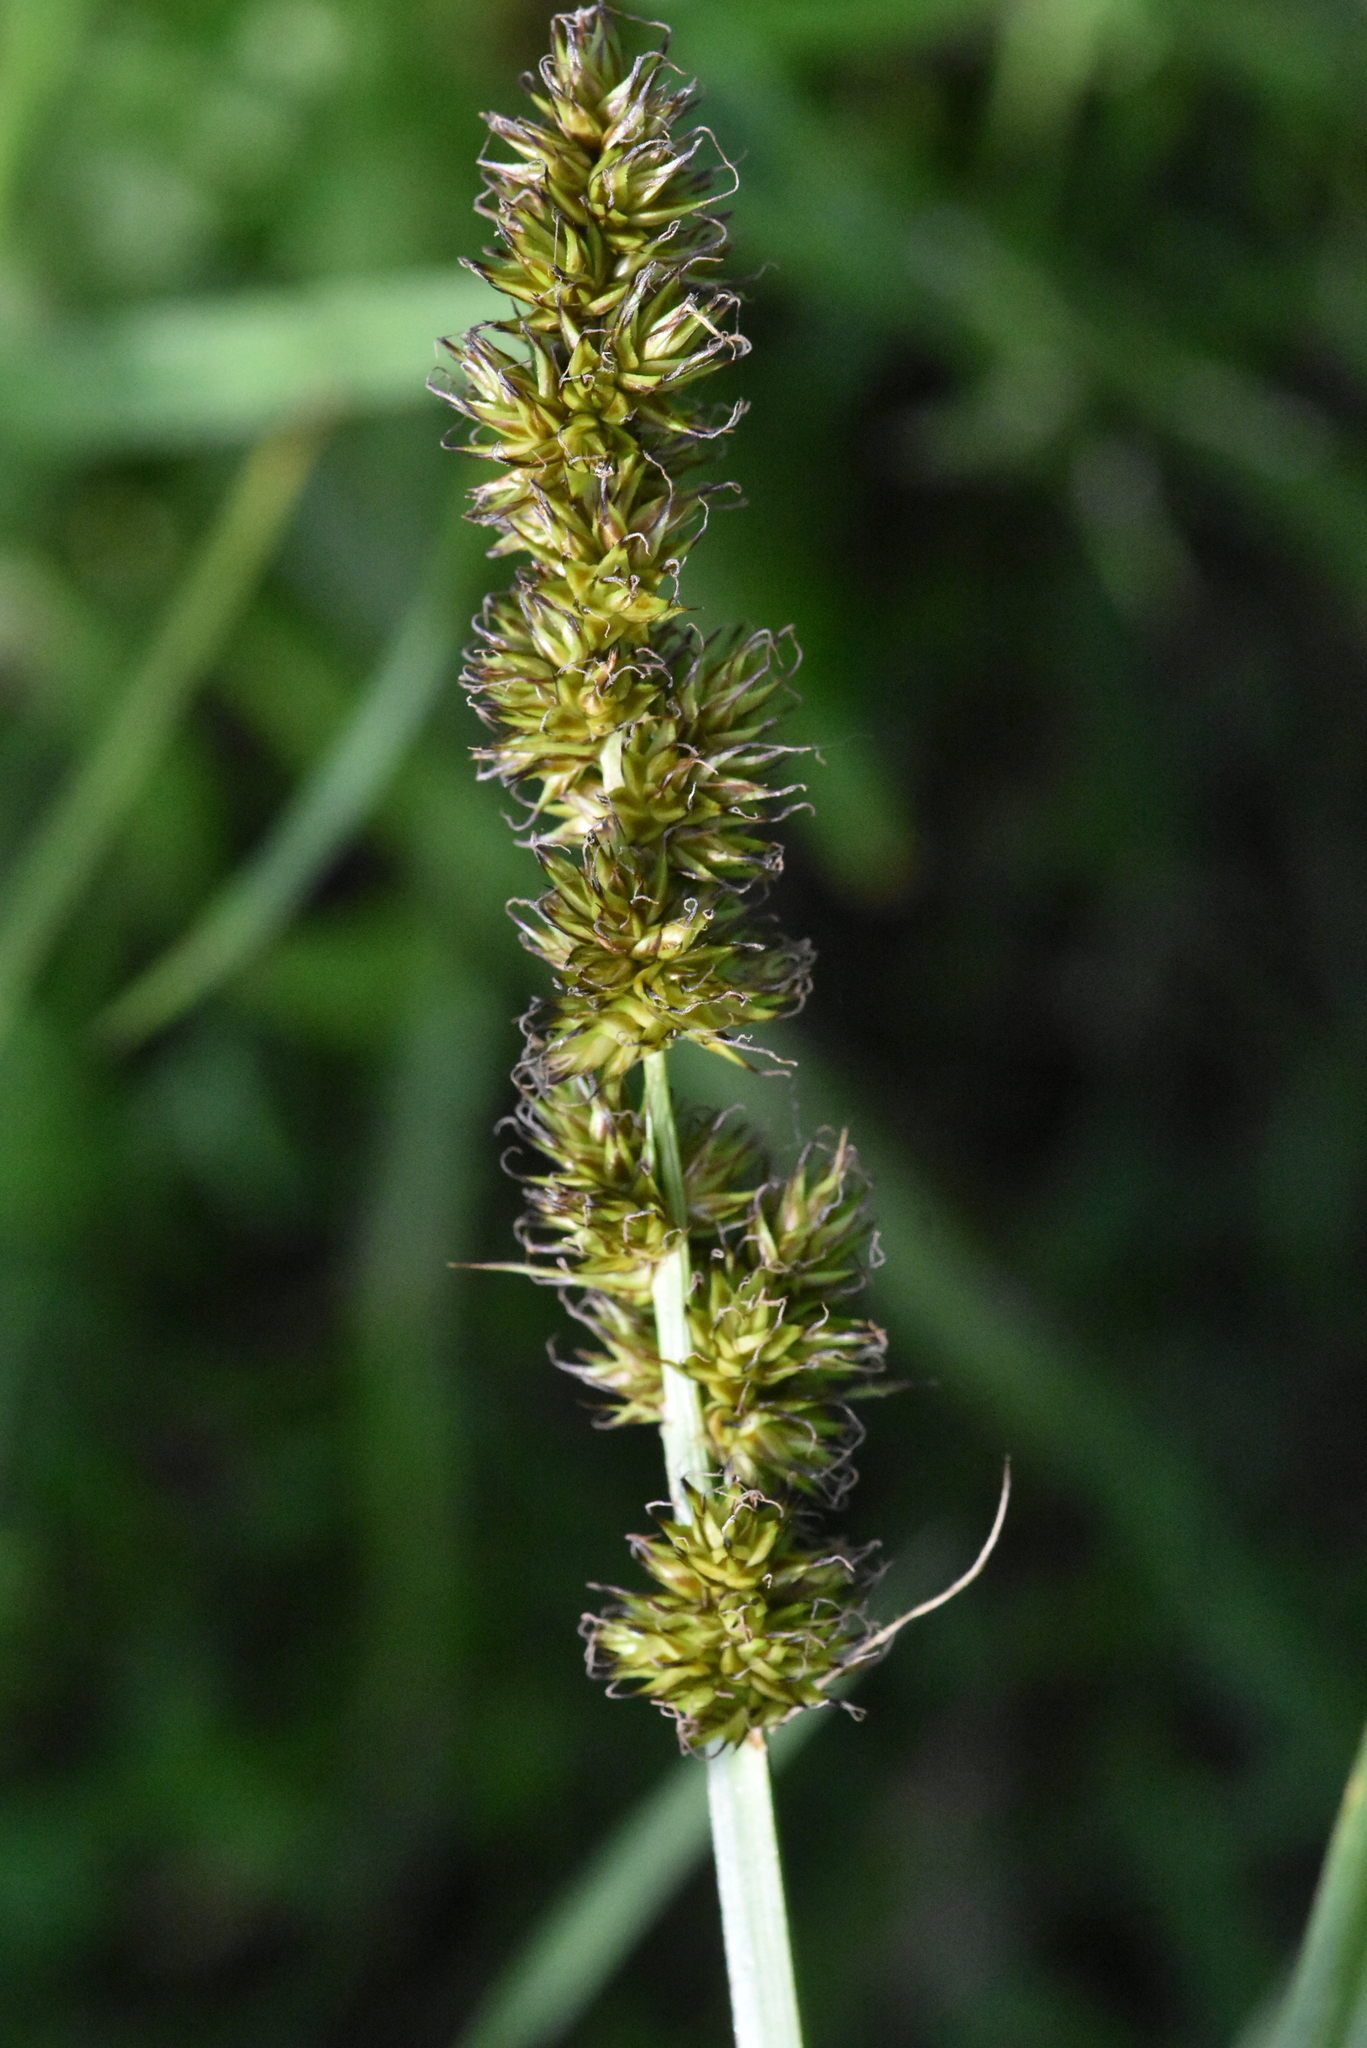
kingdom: Plantae
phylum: Tracheophyta
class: Liliopsida
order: Poales
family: Cyperaceae
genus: Carex
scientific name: Carex vulpina
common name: True fox-sedge
